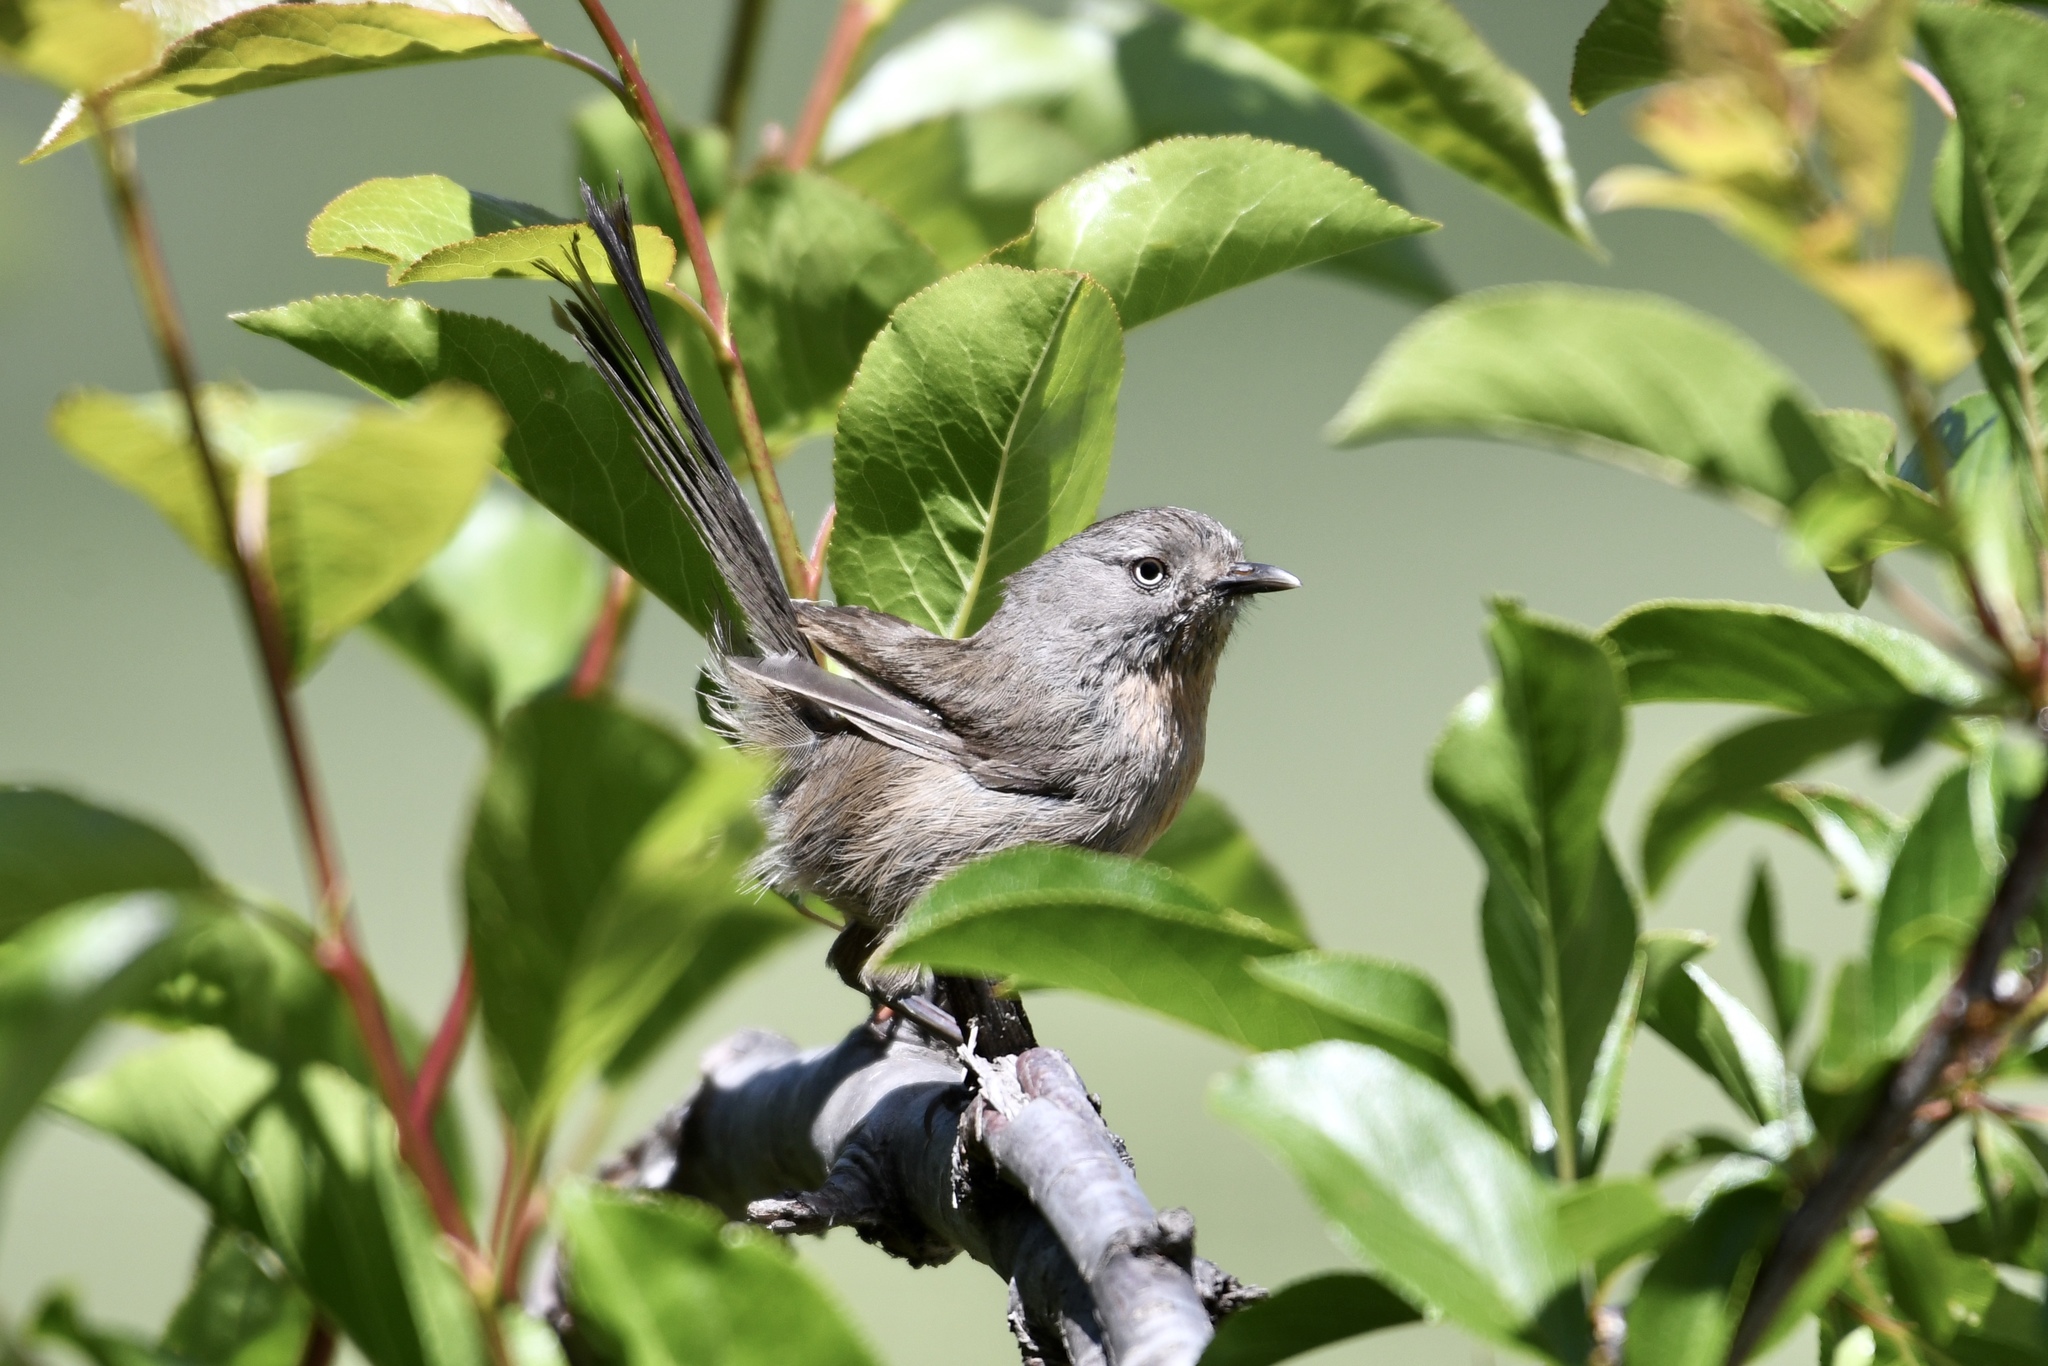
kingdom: Animalia
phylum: Chordata
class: Aves
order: Passeriformes
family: Sylviidae
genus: Chamaea
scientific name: Chamaea fasciata
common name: Wrentit
